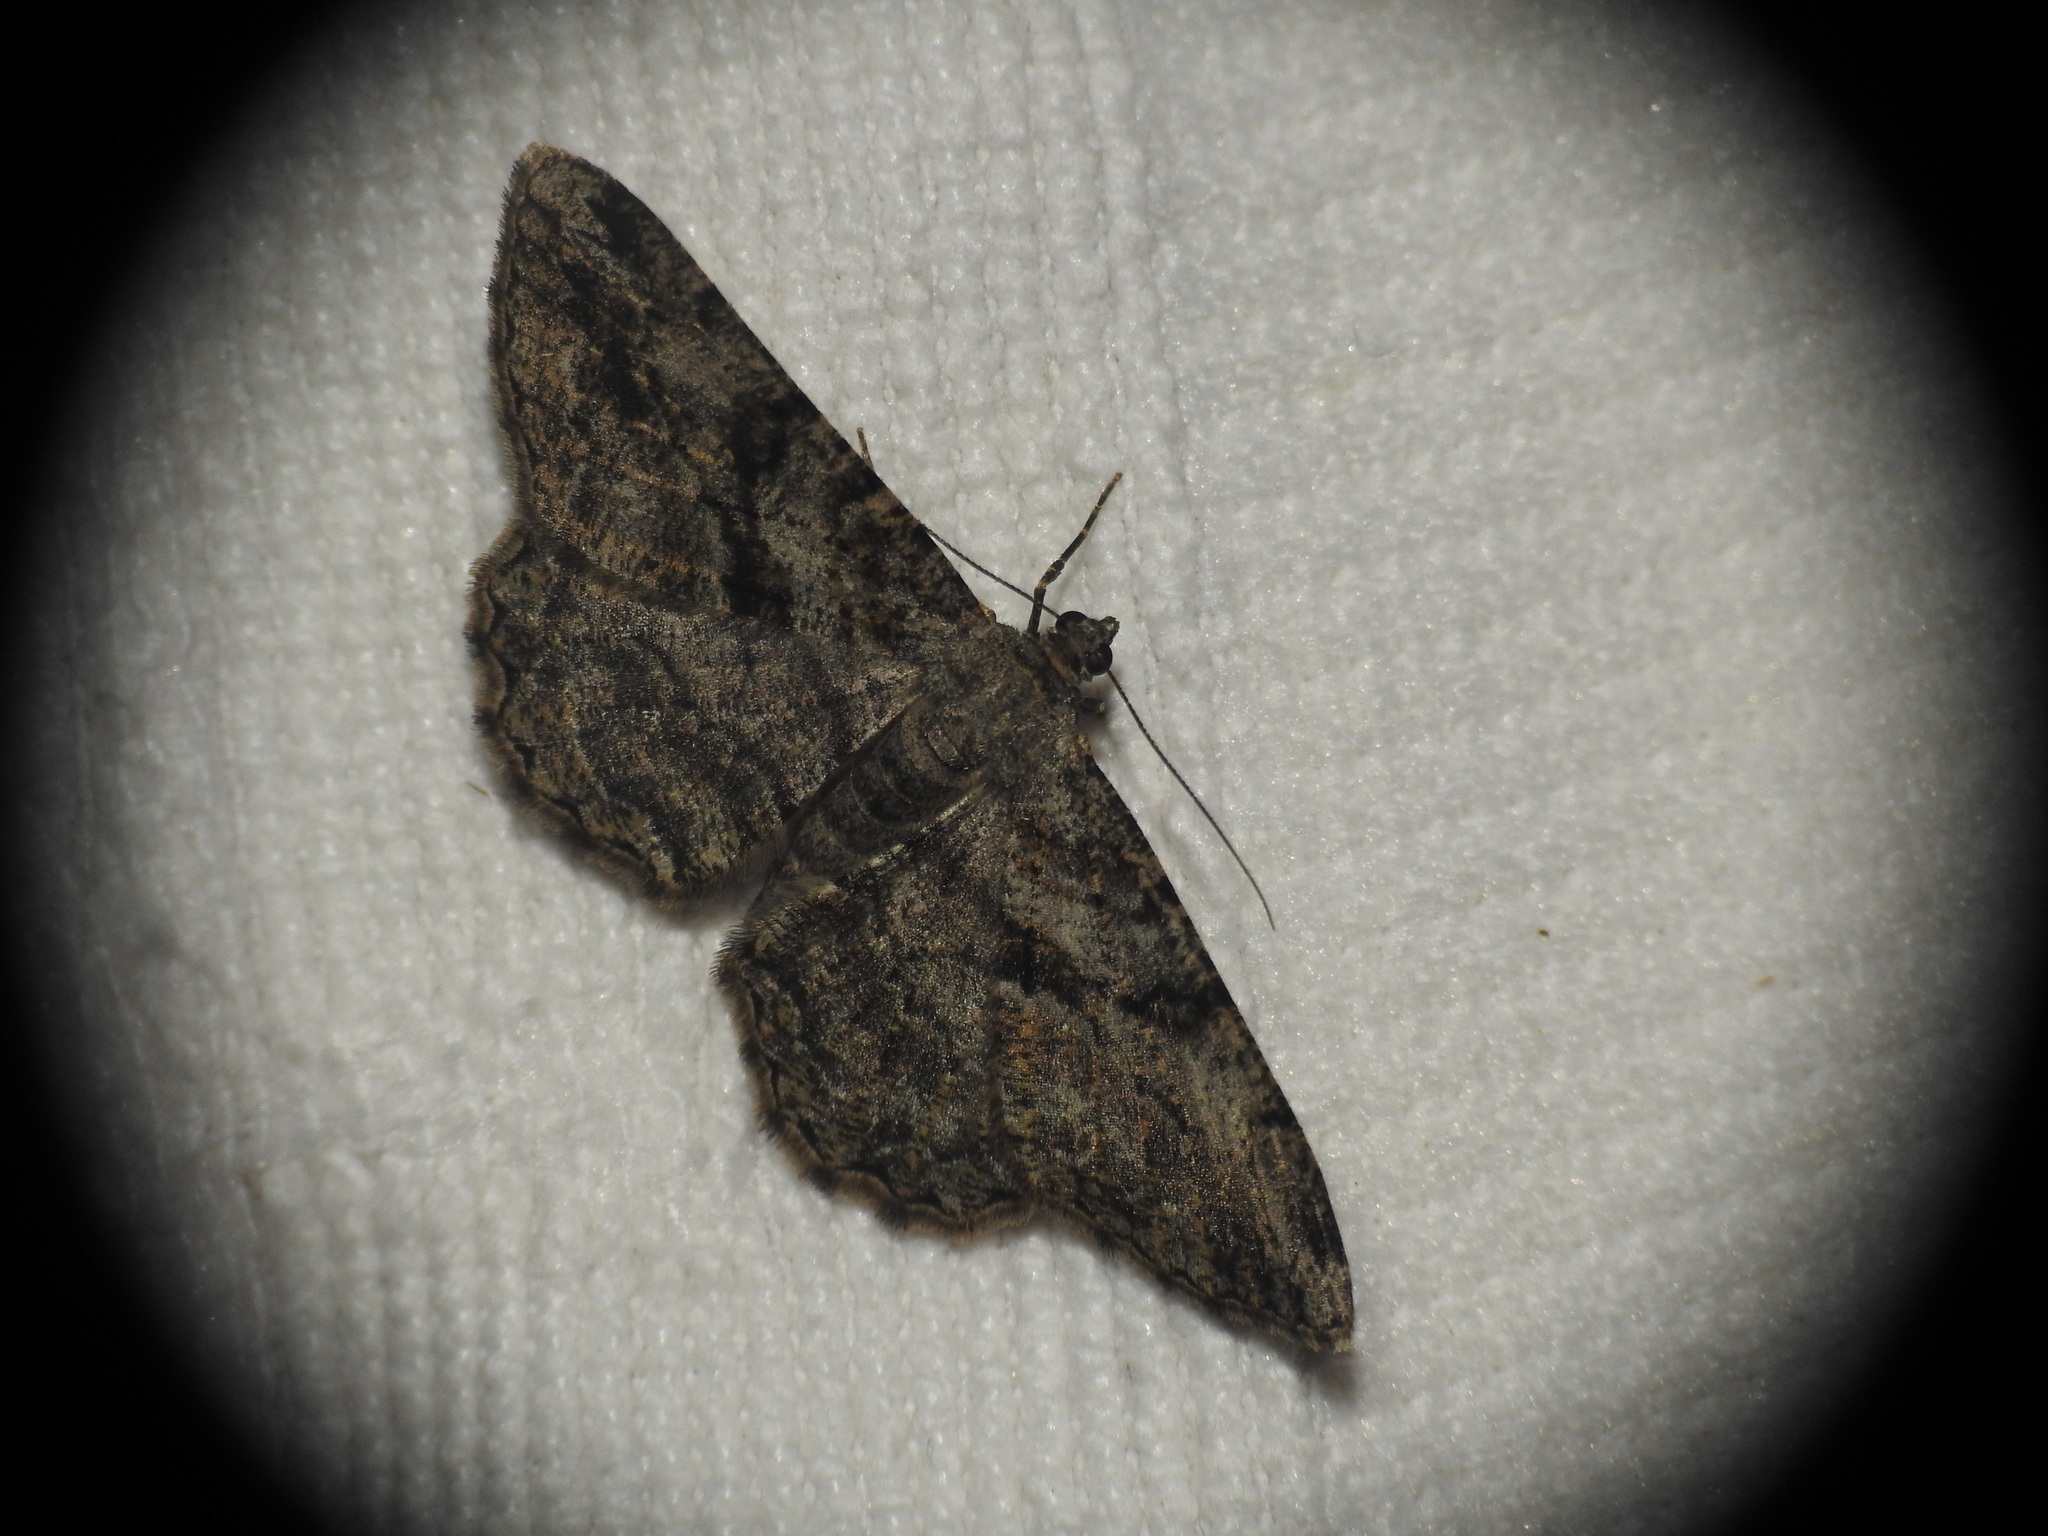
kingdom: Animalia
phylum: Arthropoda
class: Insecta
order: Lepidoptera
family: Geometridae
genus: Peribatodes
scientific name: Peribatodes rhomboidaria
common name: Willow beauty
